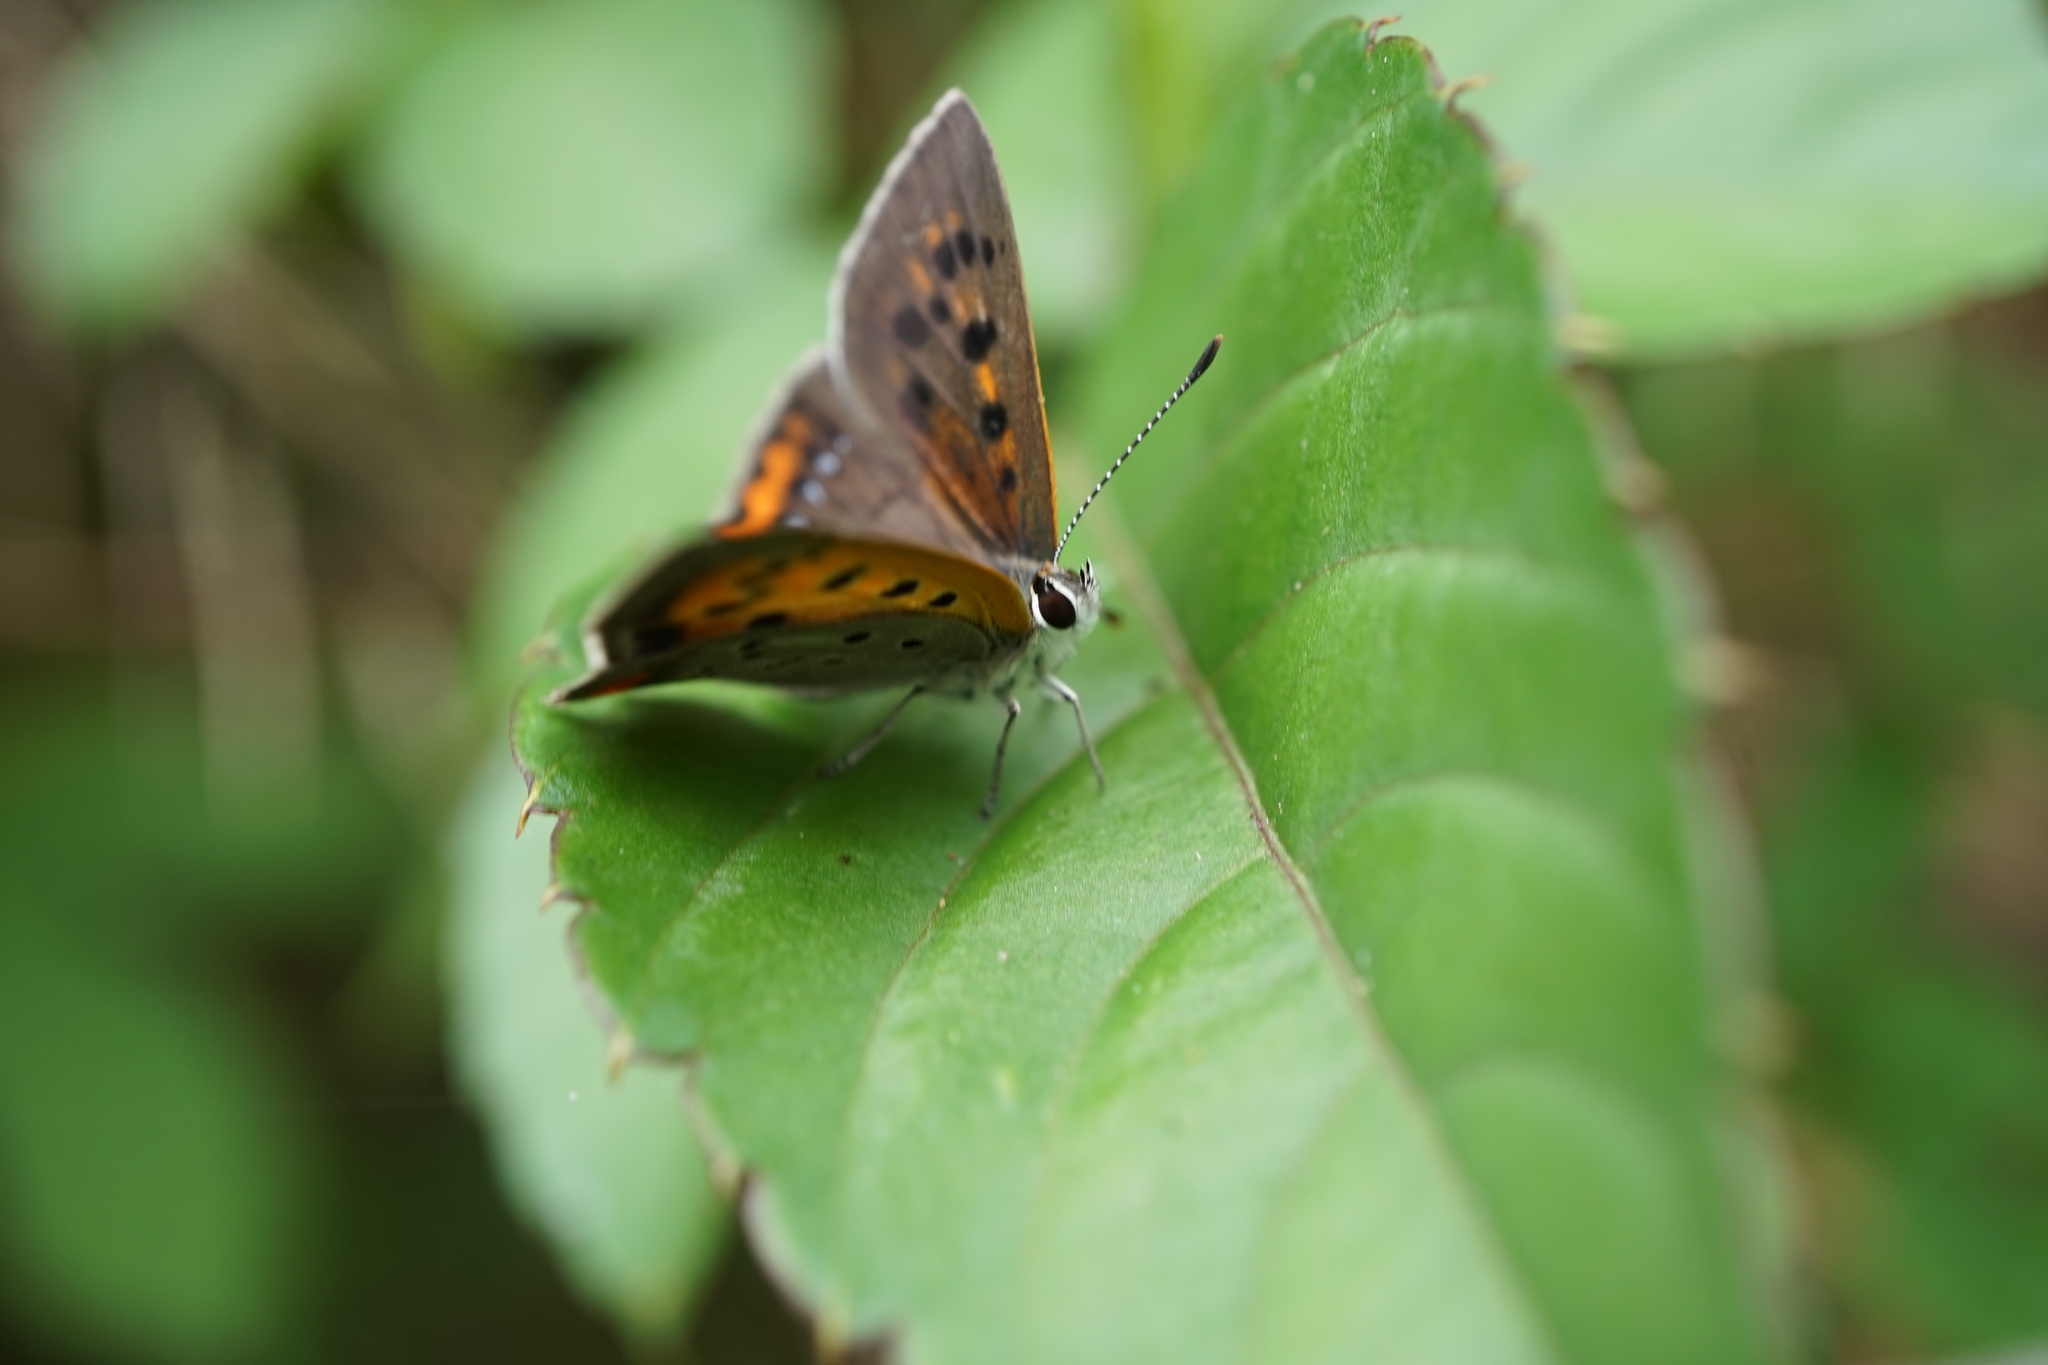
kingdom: Animalia
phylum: Arthropoda
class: Insecta
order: Lepidoptera
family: Lycaenidae
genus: Lycaena
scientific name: Lycaena phlaeas
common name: Small copper
